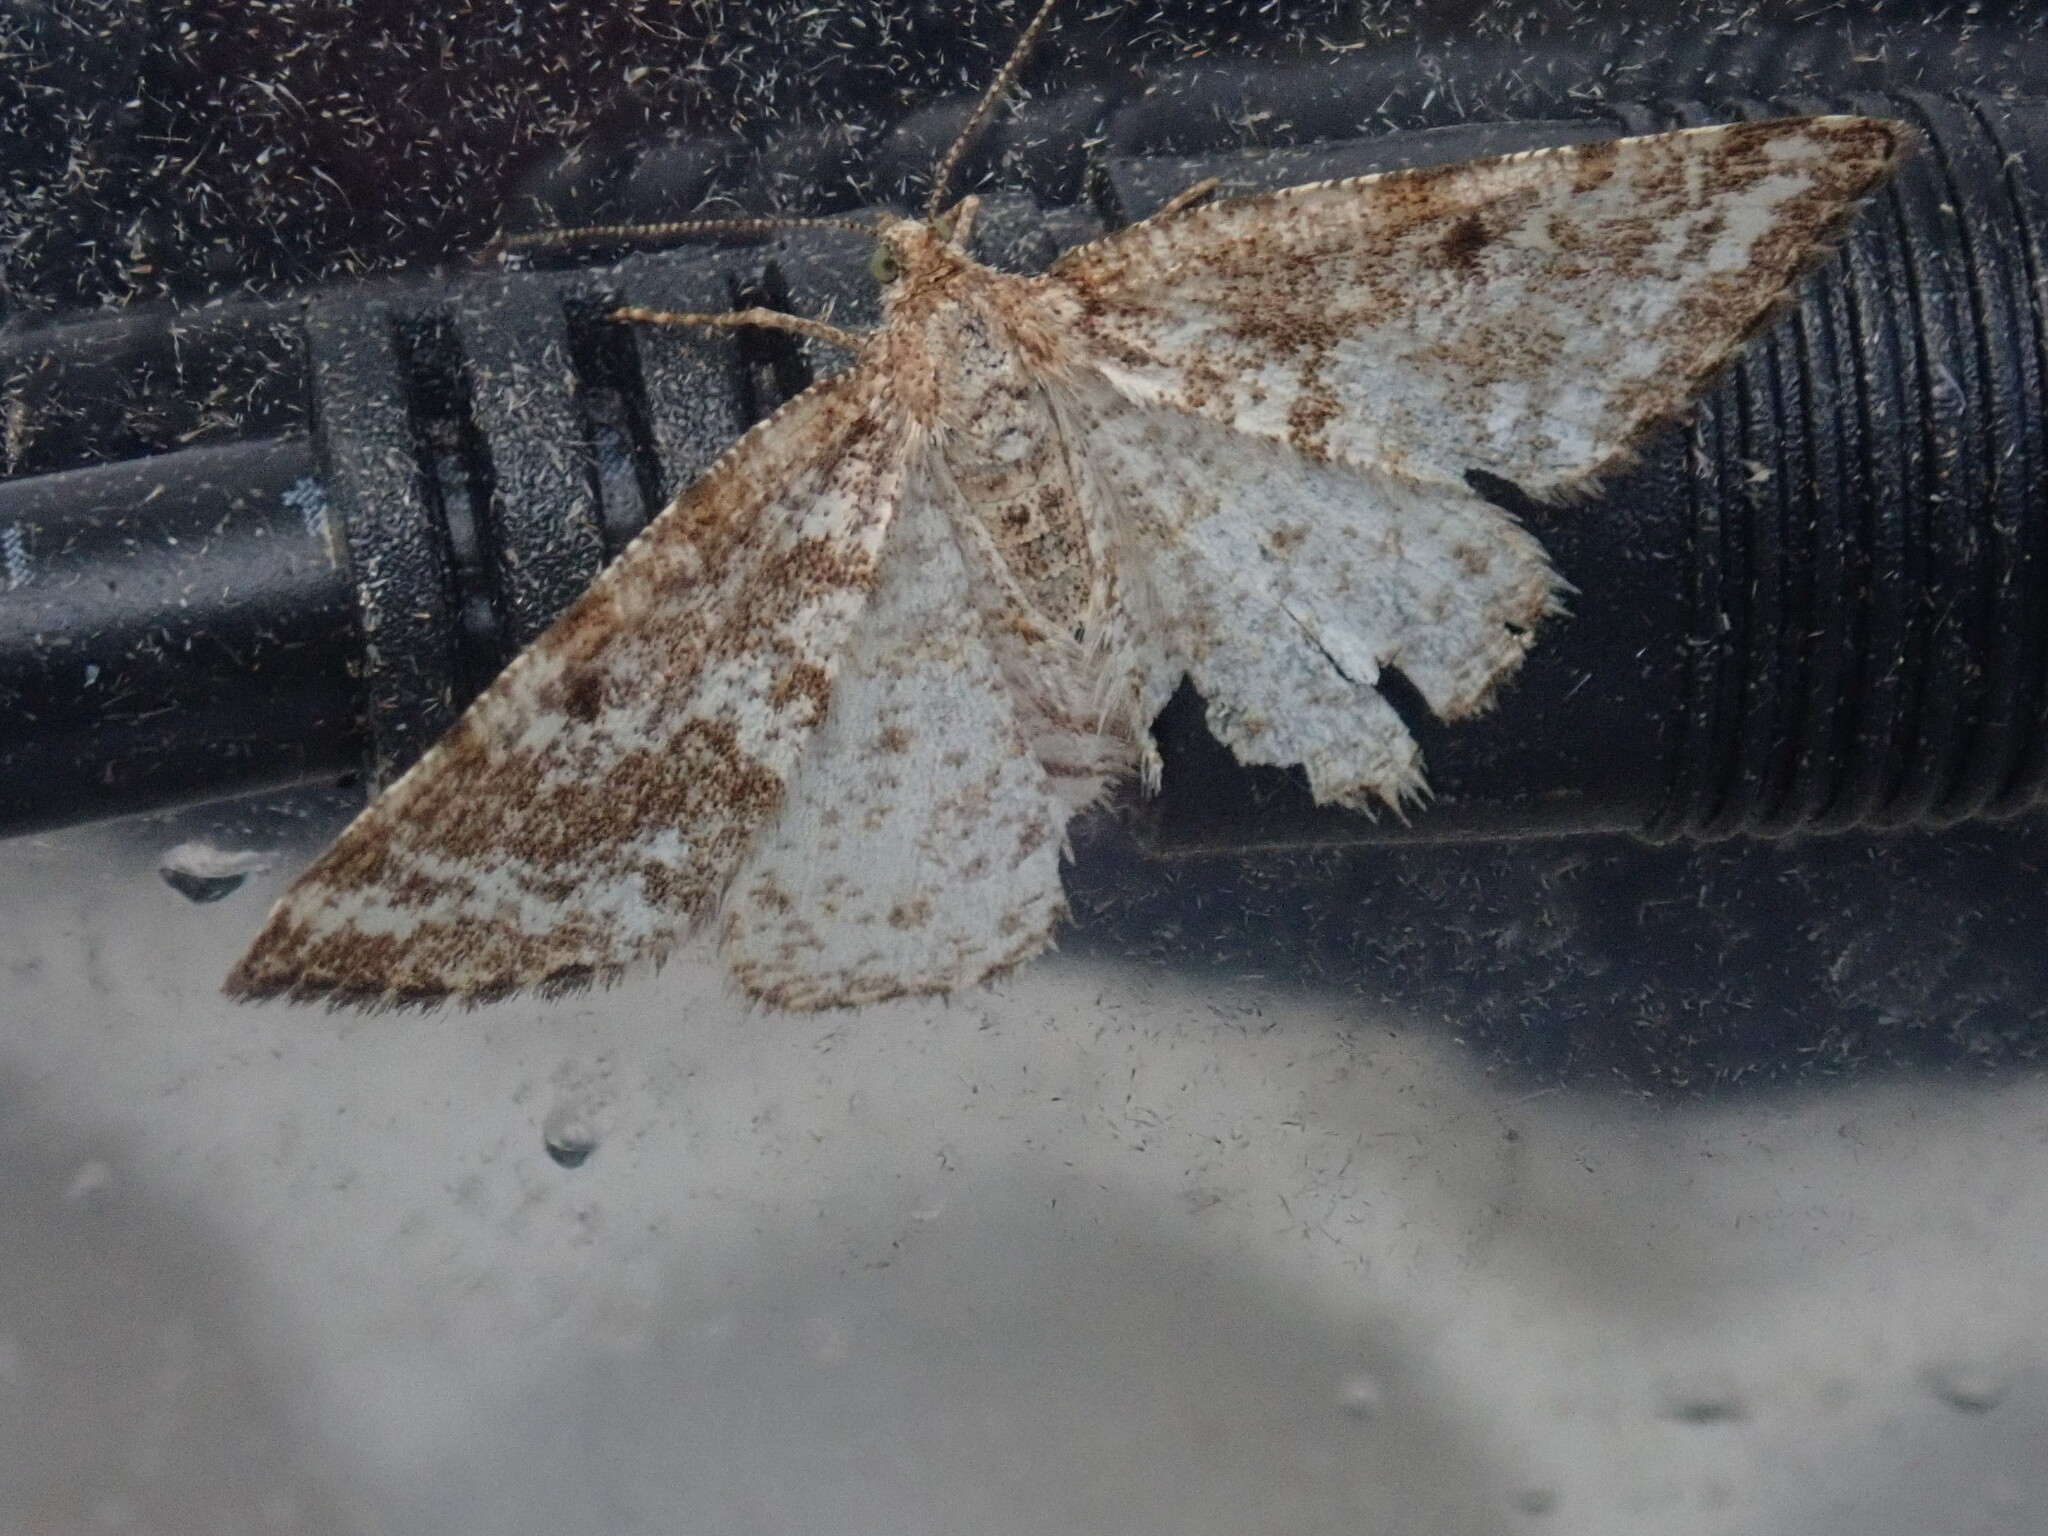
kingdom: Animalia
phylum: Arthropoda
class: Insecta
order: Lepidoptera
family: Geometridae
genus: Eufidonia
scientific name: Eufidonia notataria
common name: Powder moth
